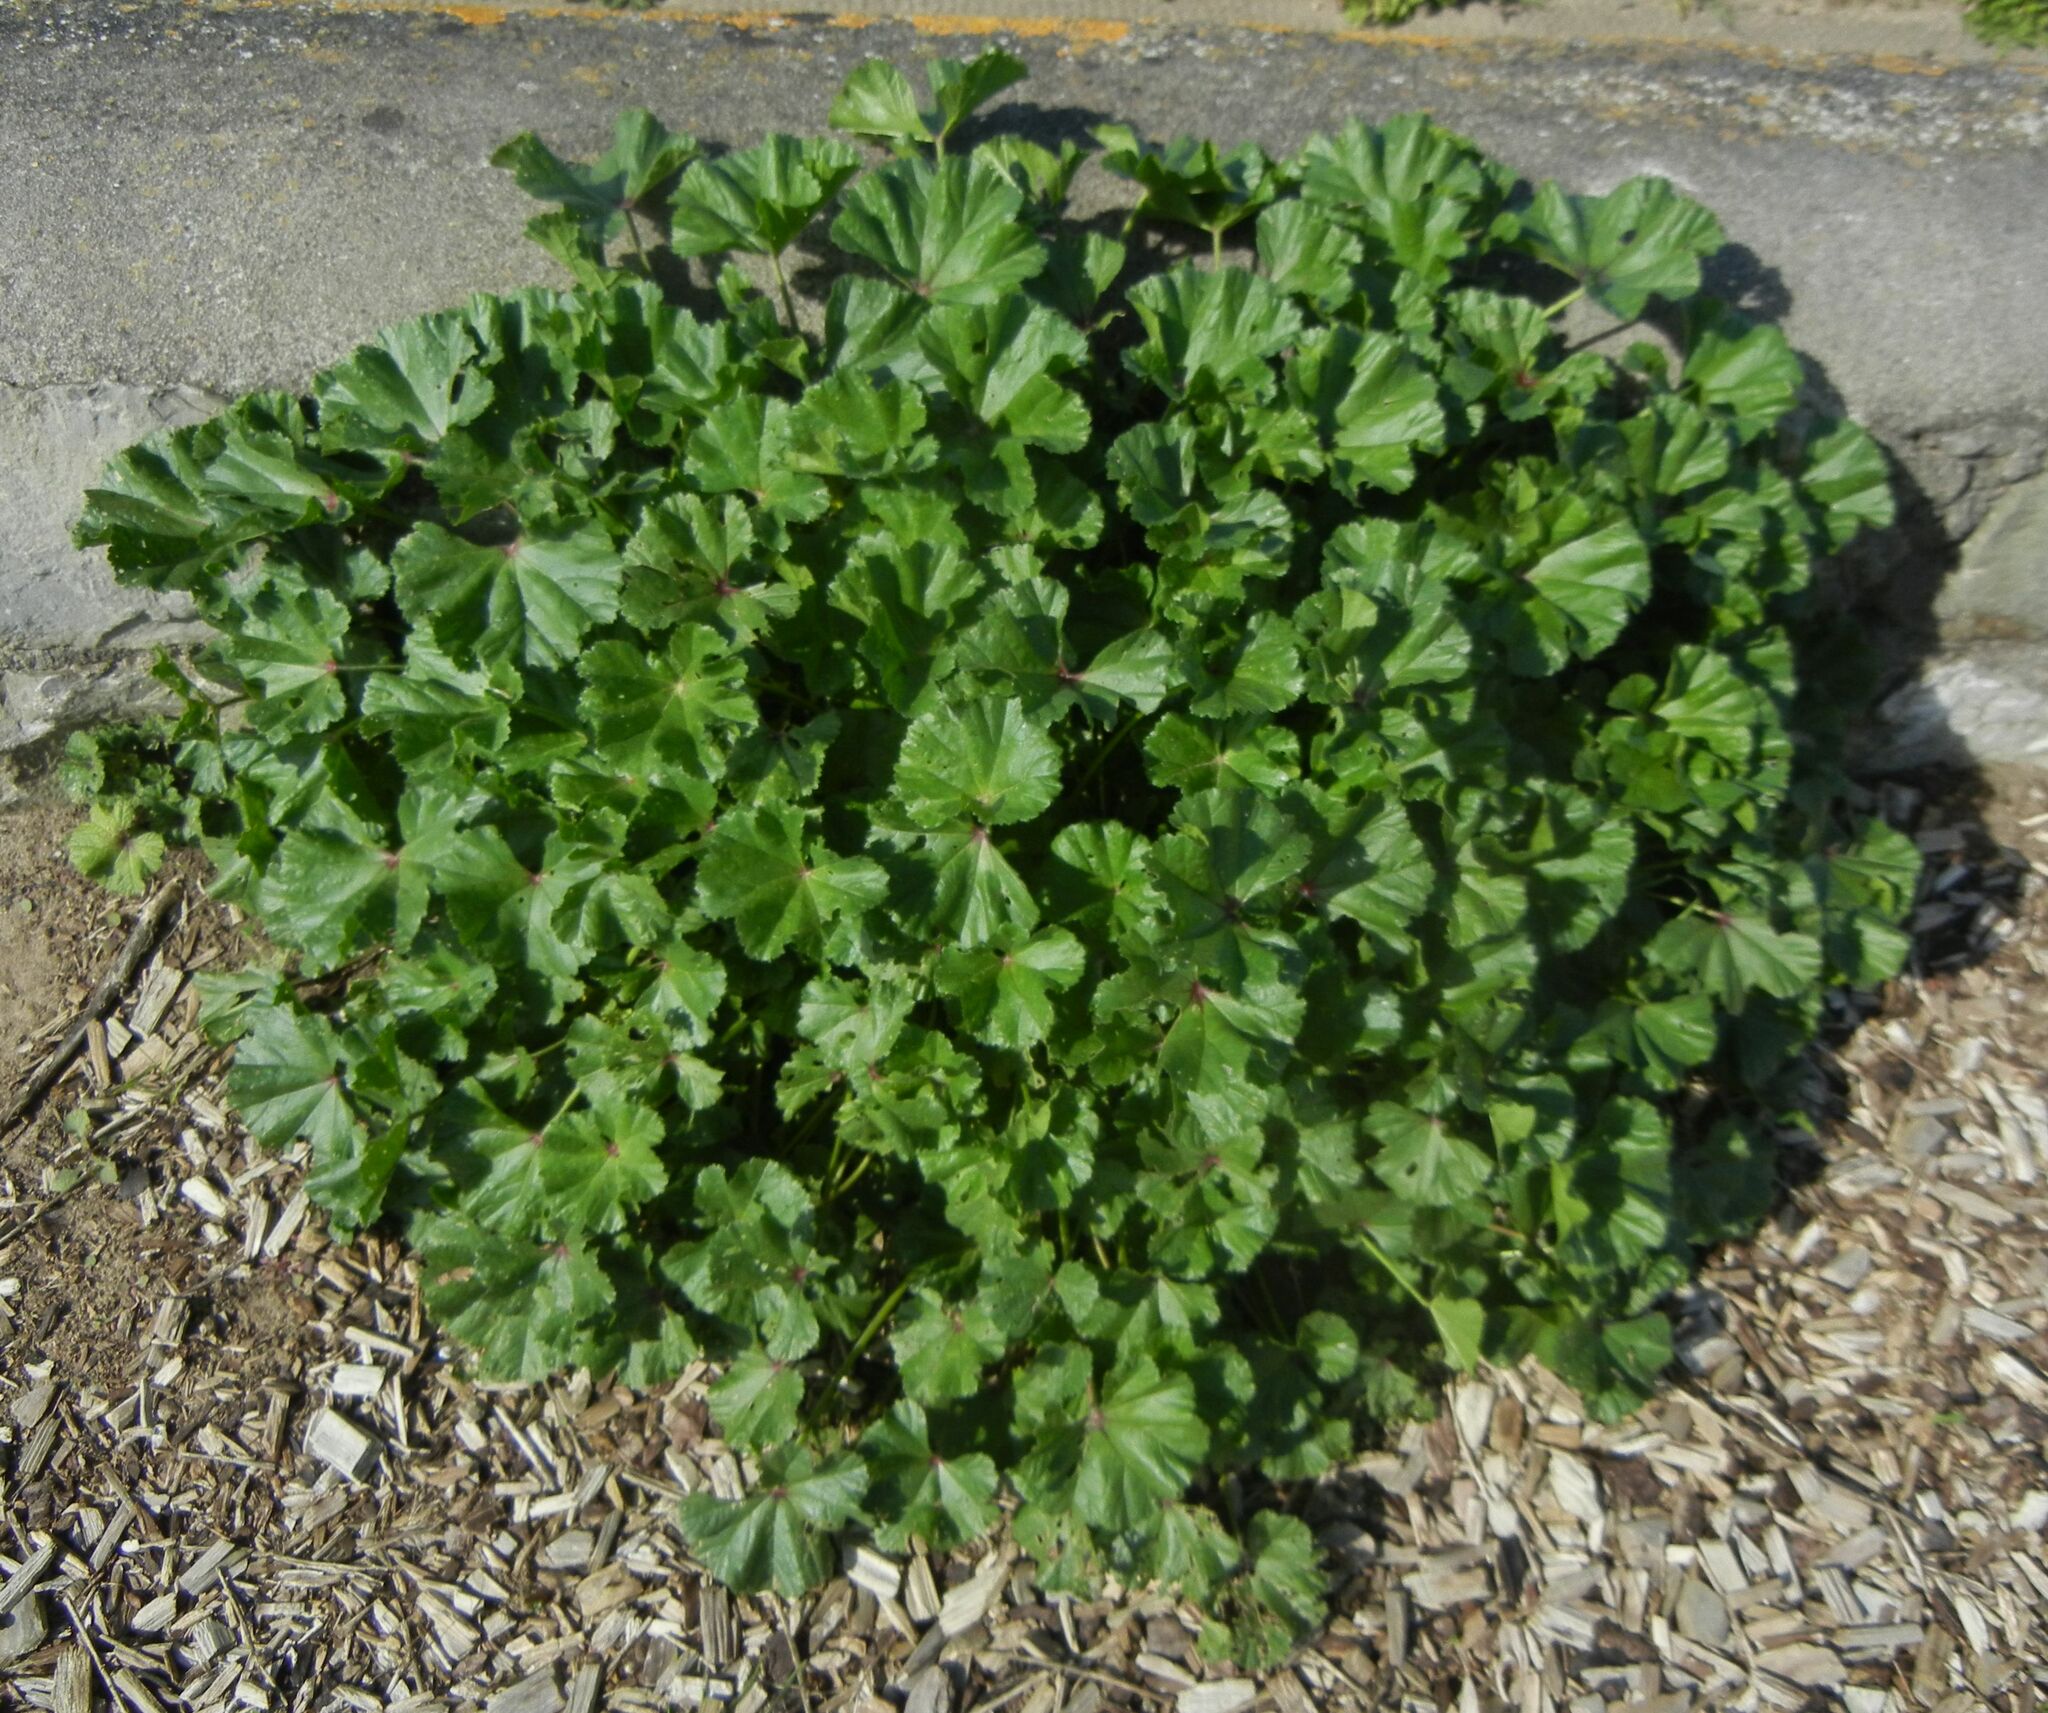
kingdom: Plantae
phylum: Tracheophyta
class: Magnoliopsida
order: Malvales
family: Malvaceae
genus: Malva
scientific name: Malva sylvestris
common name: Common mallow
